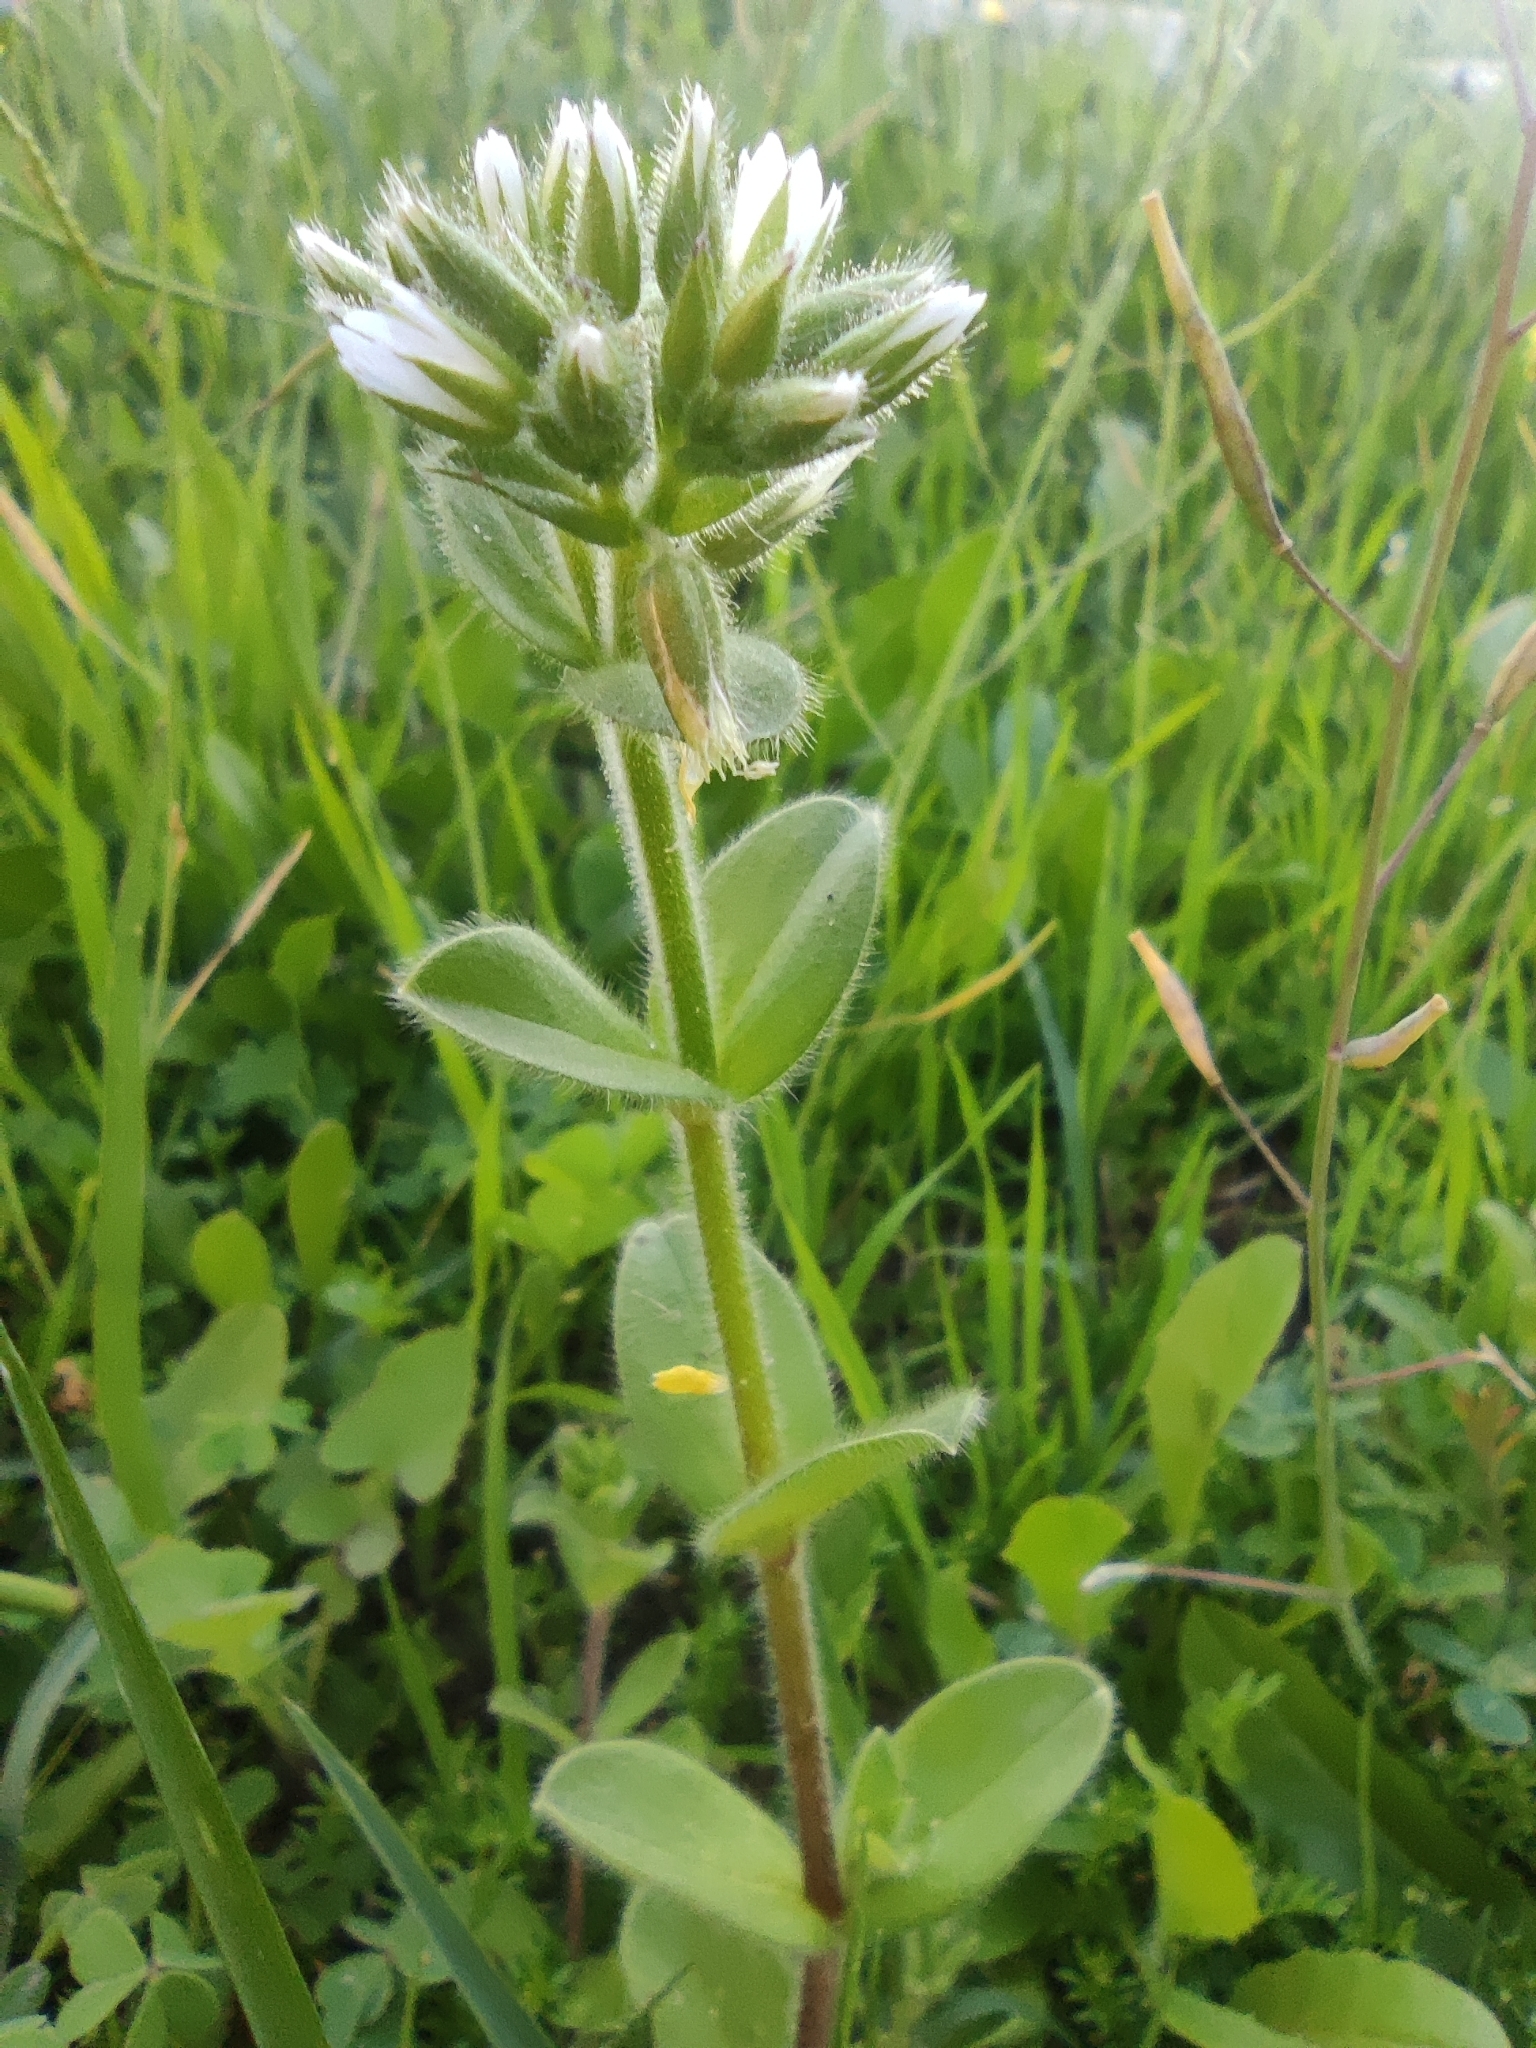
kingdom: Plantae
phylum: Tracheophyta
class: Magnoliopsida
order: Caryophyllales
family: Caryophyllaceae
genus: Cerastium
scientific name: Cerastium glomeratum
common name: Sticky chickweed
